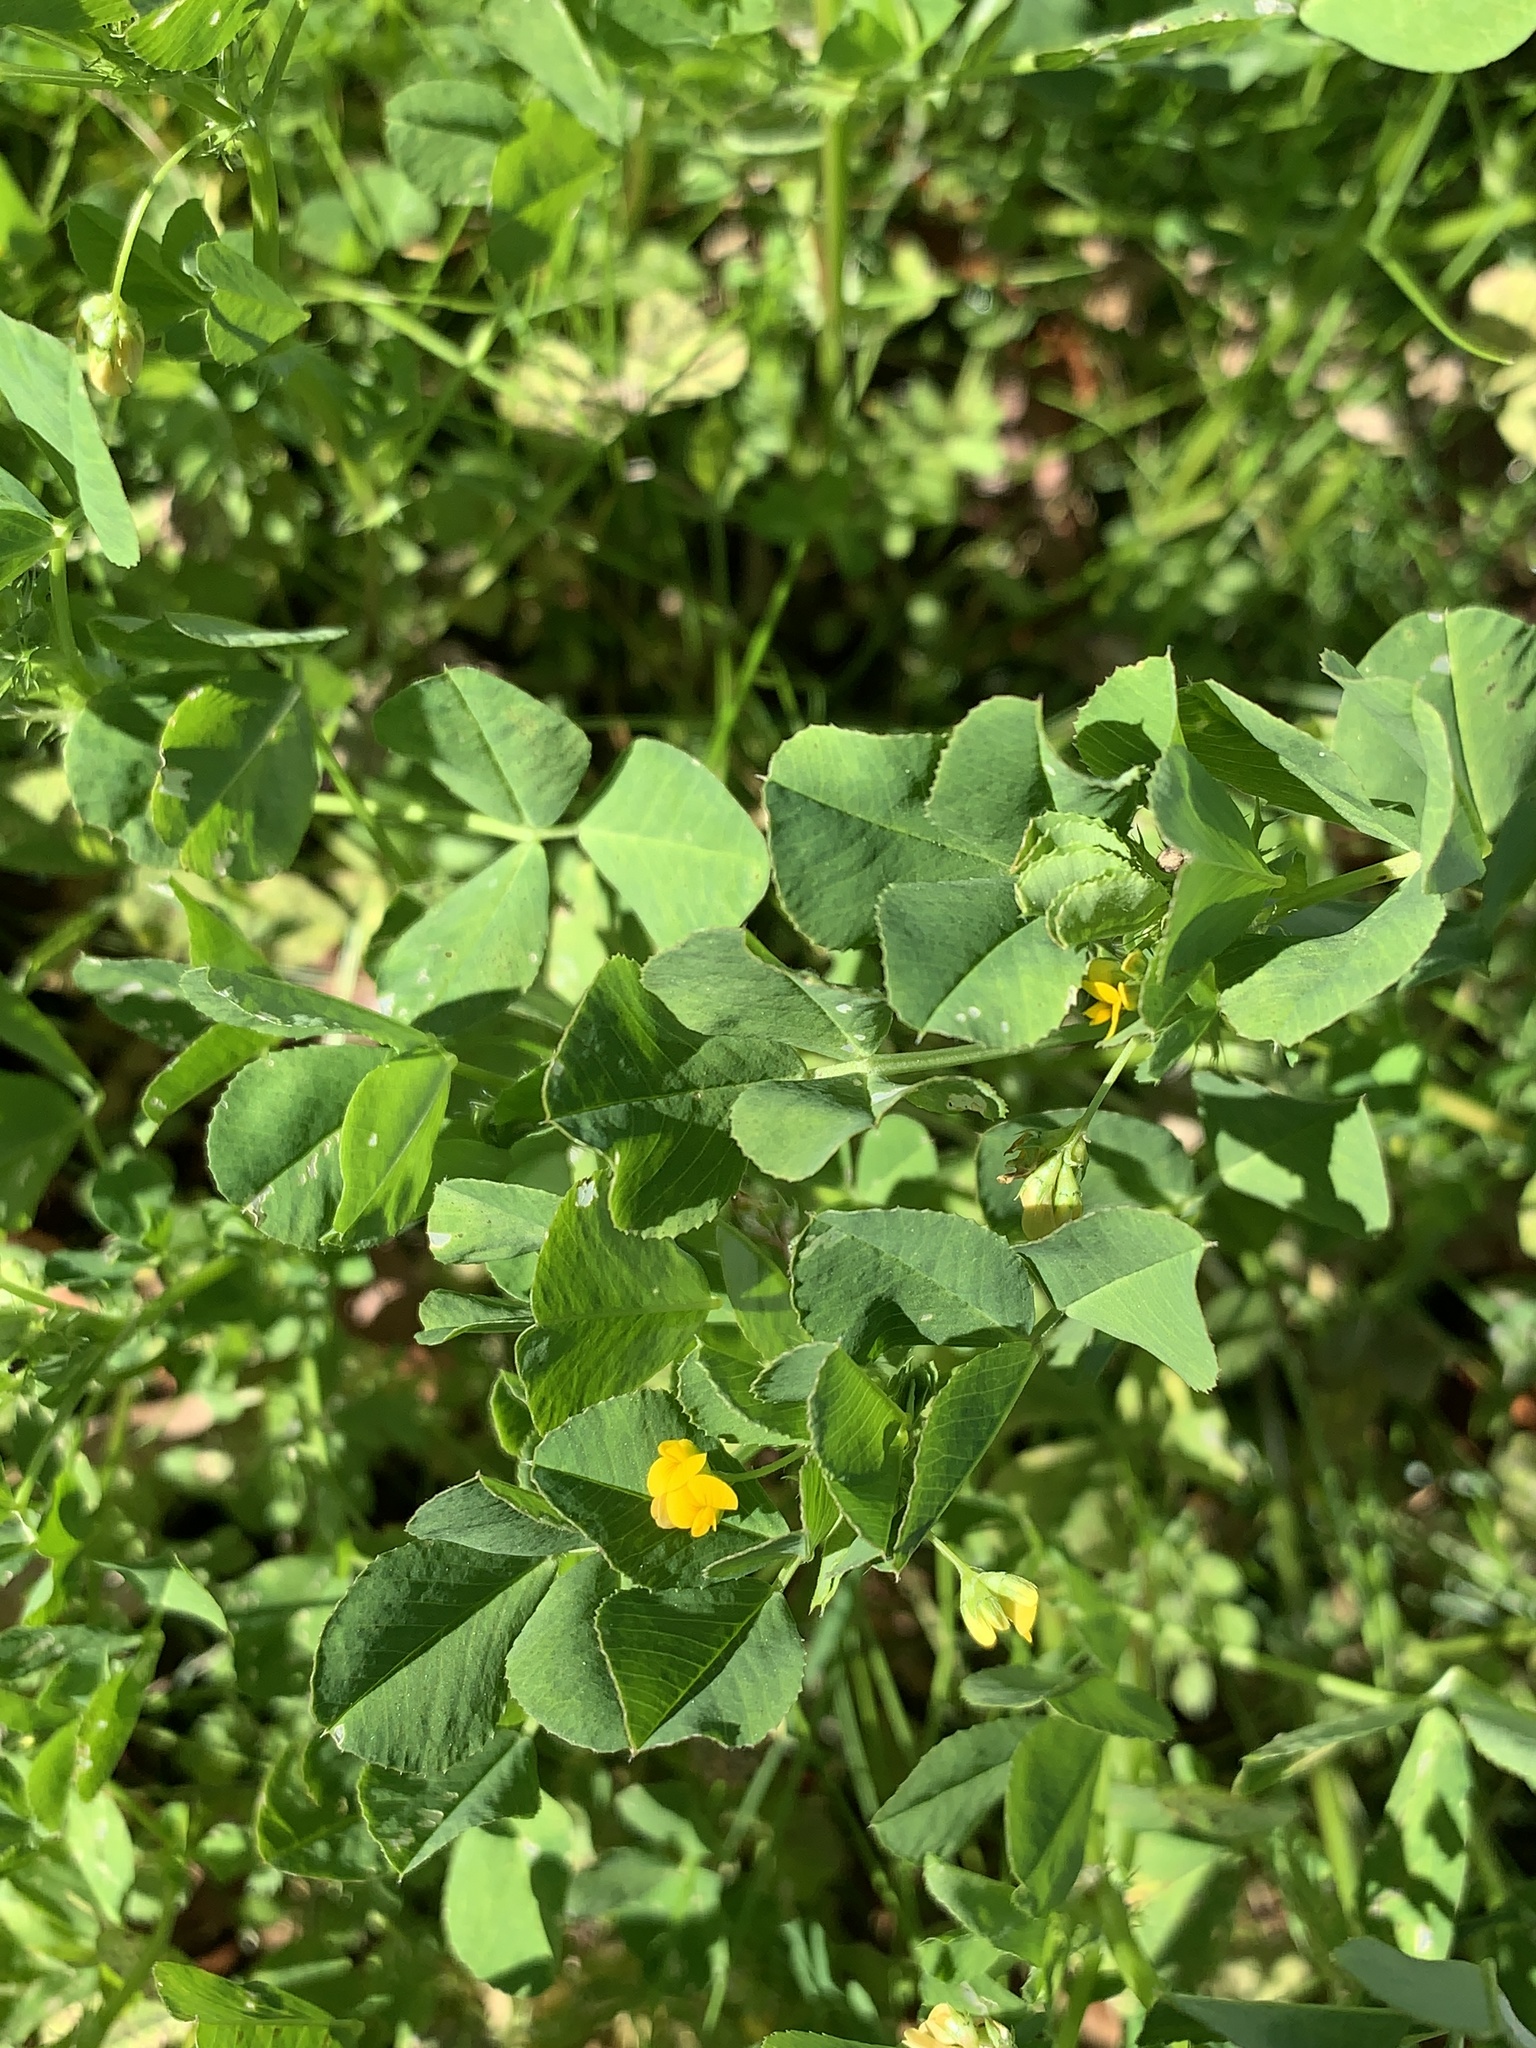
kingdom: Plantae
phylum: Tracheophyta
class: Magnoliopsida
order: Fabales
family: Fabaceae
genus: Medicago
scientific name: Medicago polymorpha
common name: Burclover
